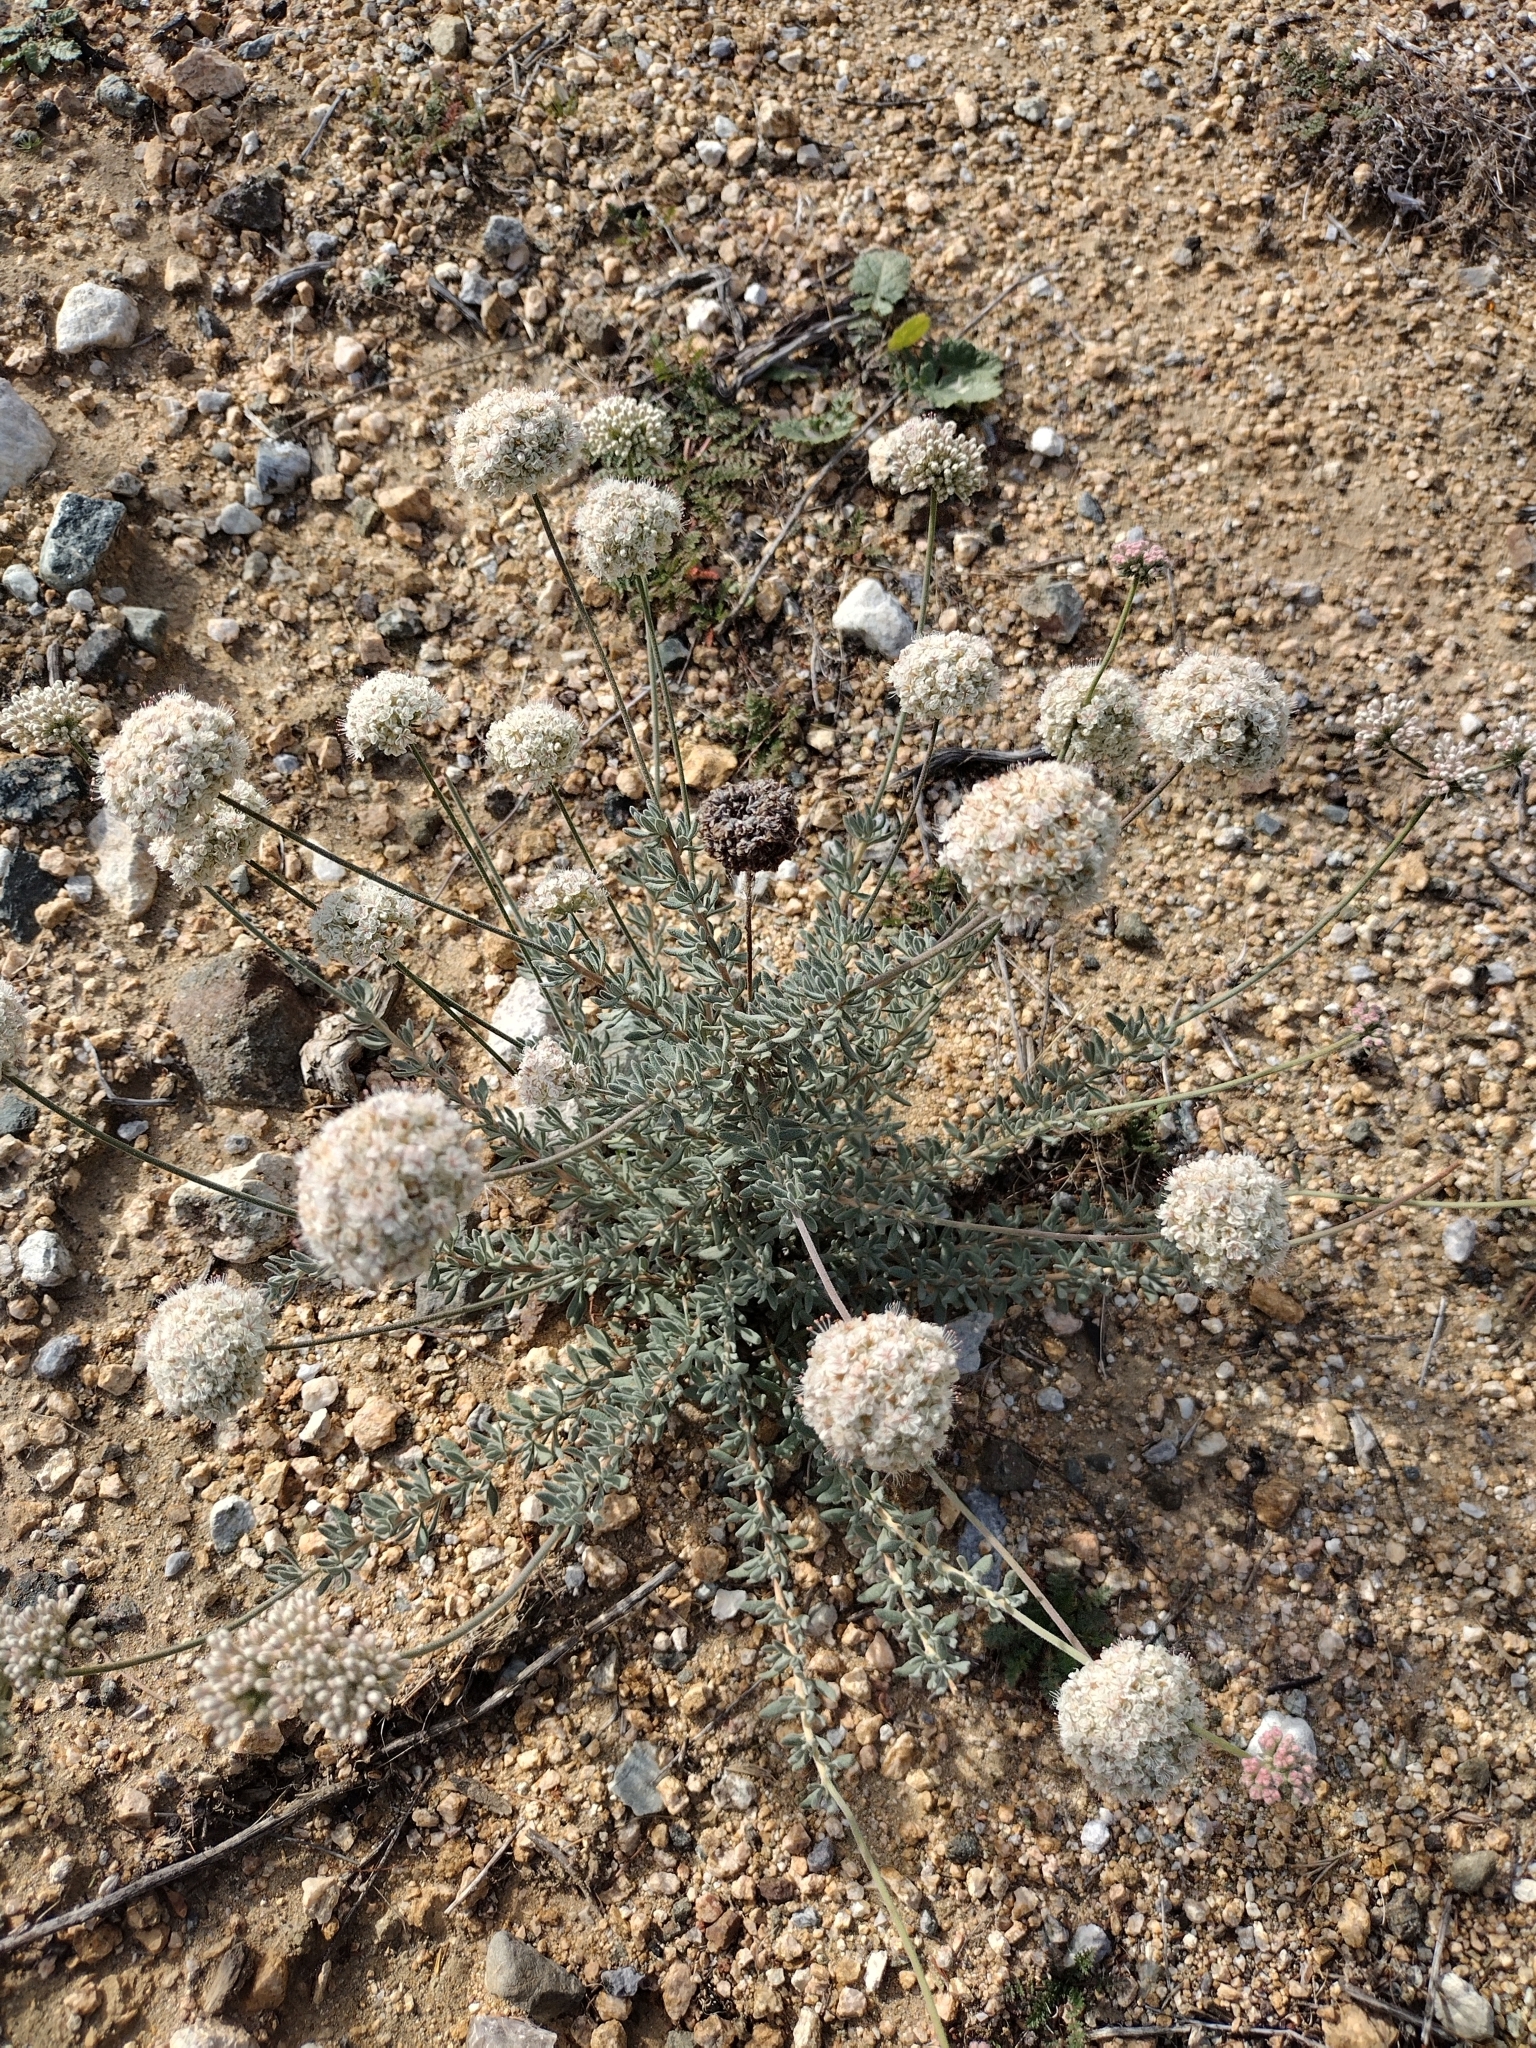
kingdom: Plantae
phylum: Tracheophyta
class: Magnoliopsida
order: Caryophyllales
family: Polygonaceae
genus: Eriogonum
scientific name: Eriogonum fasciculatum
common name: California wild buckwheat
